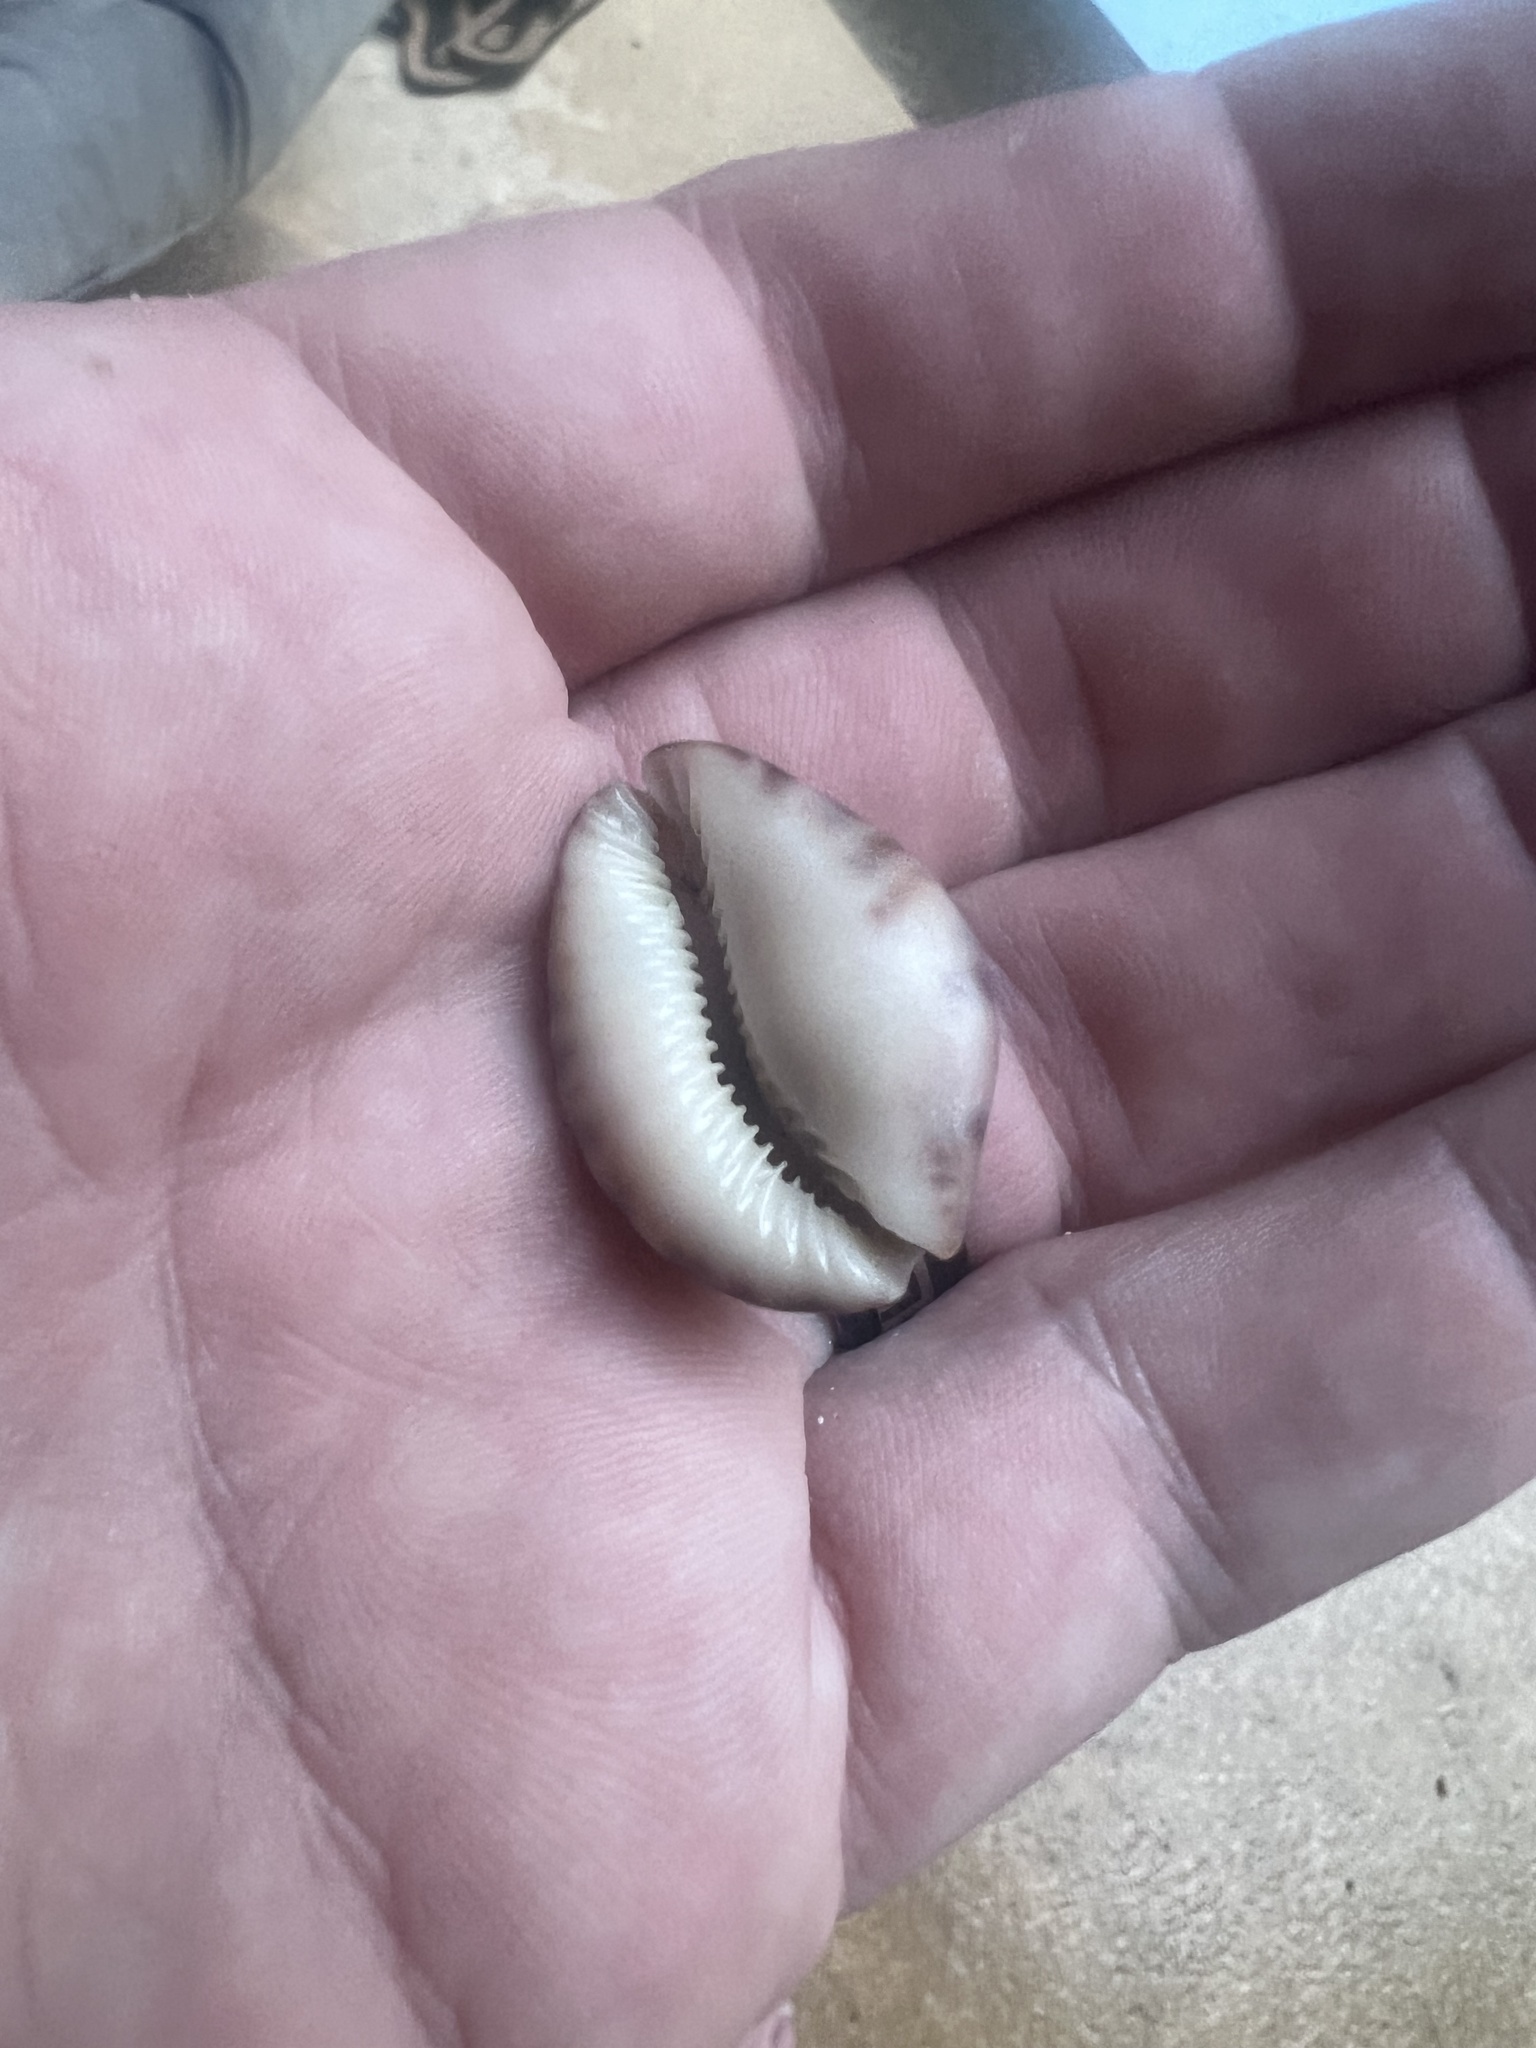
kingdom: Animalia
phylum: Mollusca
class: Gastropoda
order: Littorinimorpha
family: Cypraeidae
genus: Pseudozonaria
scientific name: Pseudozonaria arabicula
